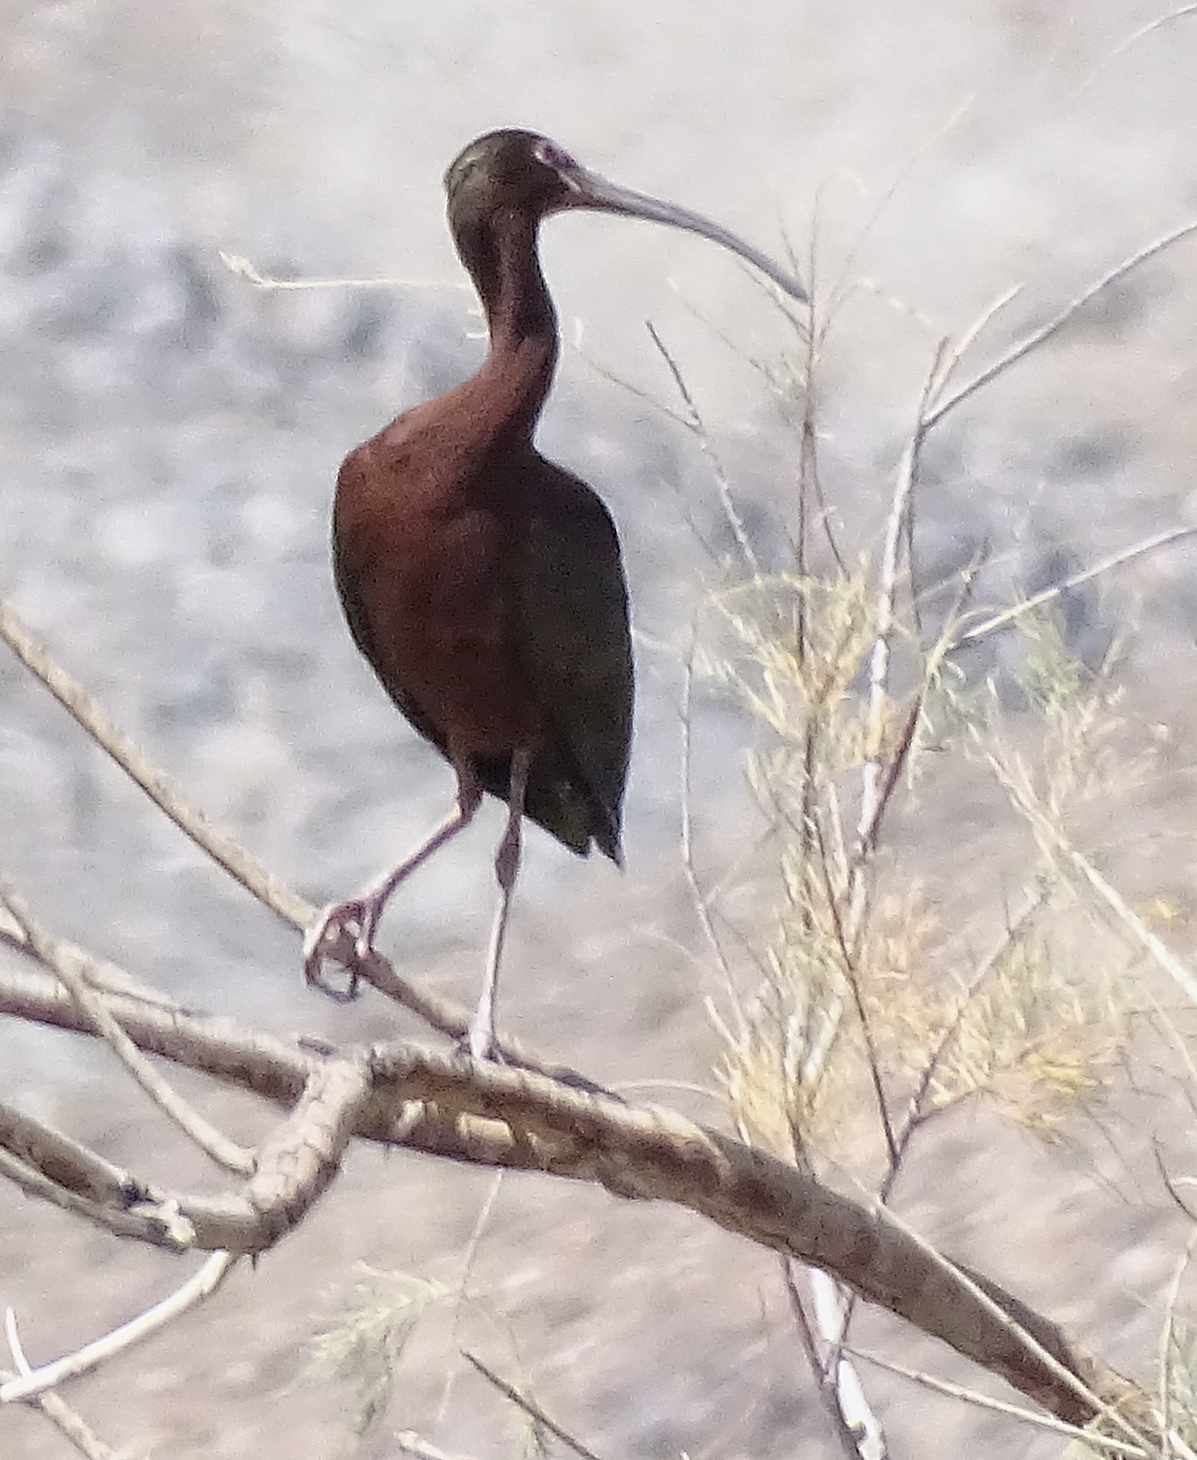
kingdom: Animalia
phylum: Chordata
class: Aves
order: Pelecaniformes
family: Threskiornithidae
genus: Plegadis
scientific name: Plegadis chihi
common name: White-faced ibis
